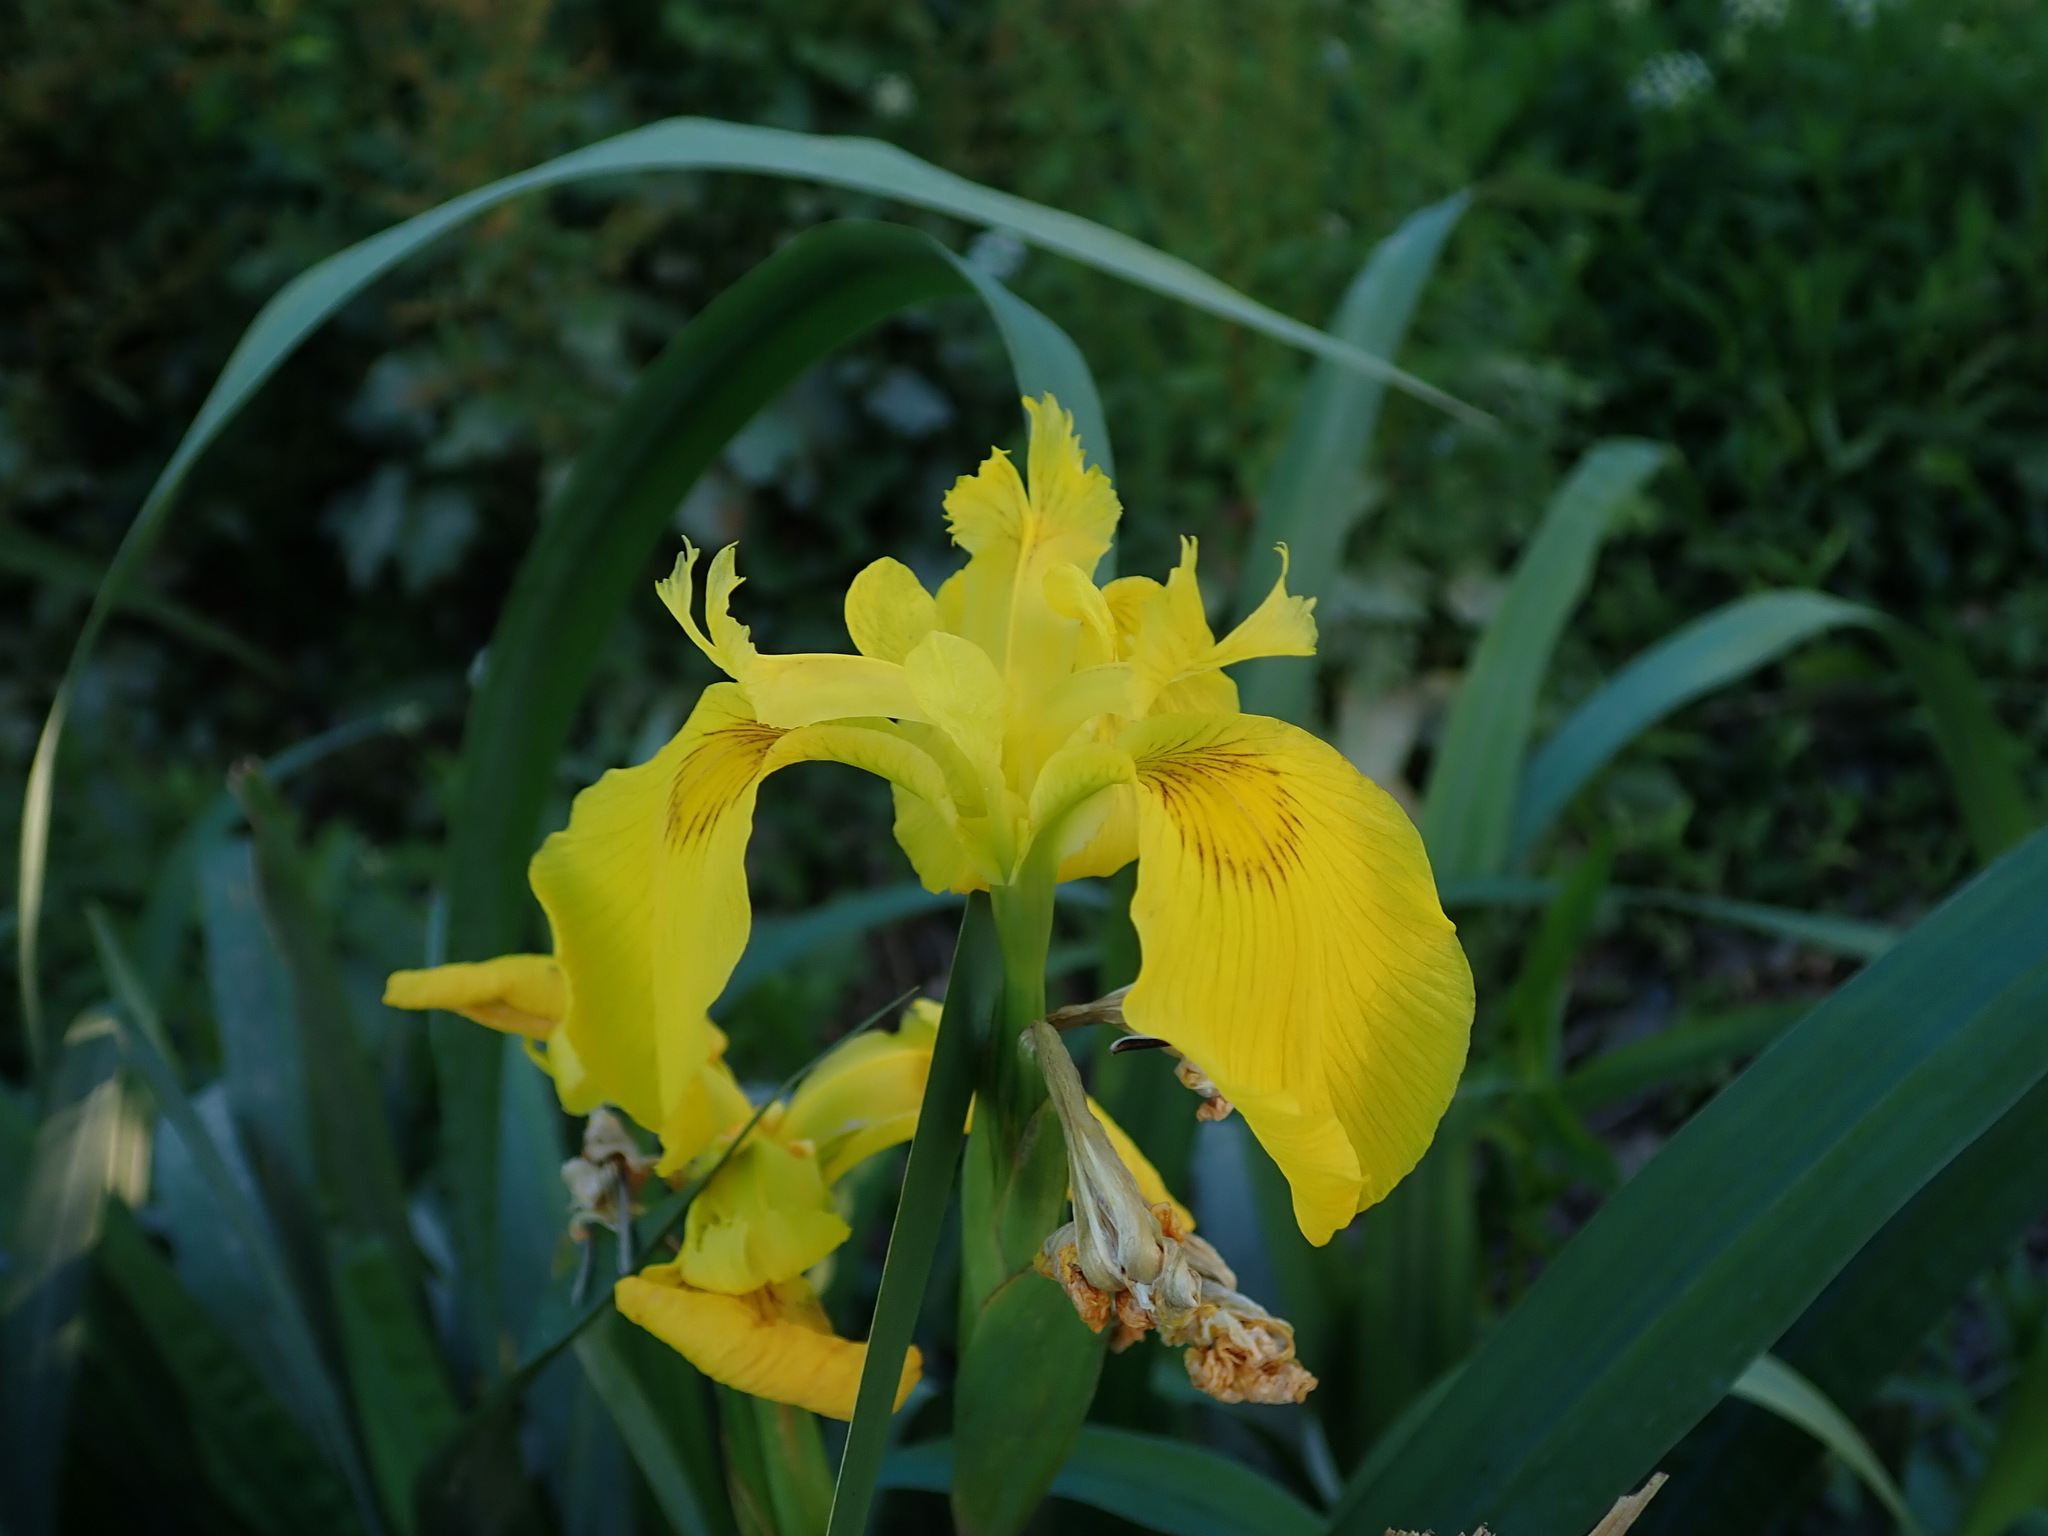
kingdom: Plantae
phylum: Tracheophyta
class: Liliopsida
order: Asparagales
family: Iridaceae
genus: Iris
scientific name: Iris pseudacorus
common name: Yellow flag
